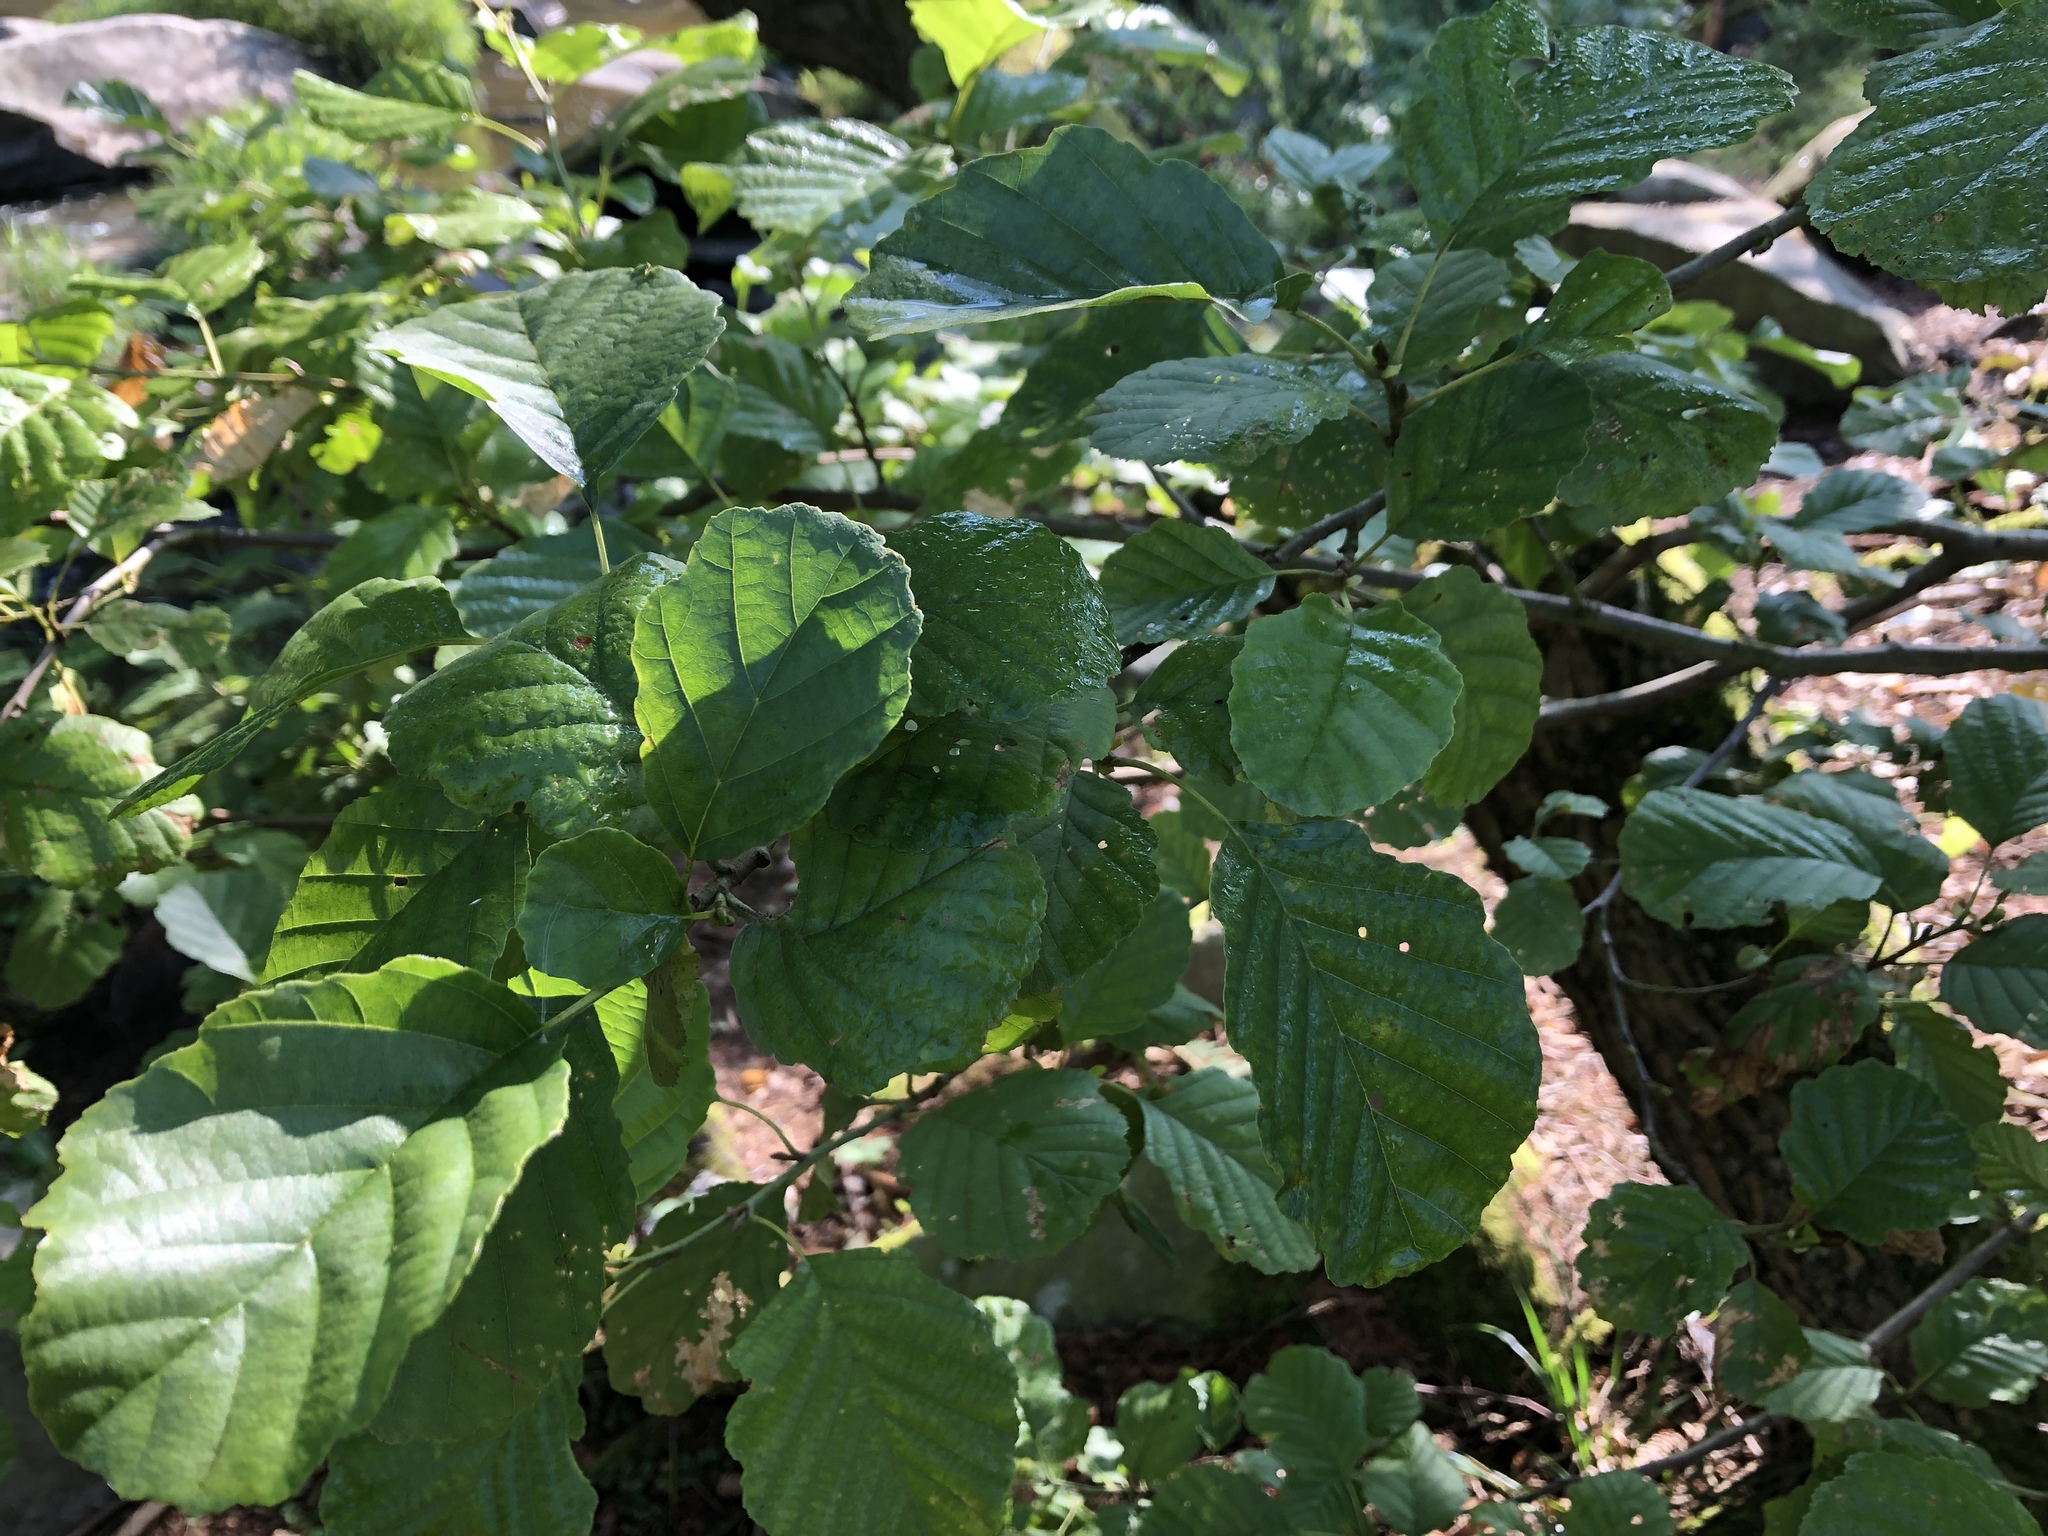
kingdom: Plantae
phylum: Tracheophyta
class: Magnoliopsida
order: Fagales
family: Betulaceae
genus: Alnus
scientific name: Alnus glutinosa
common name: Black alder
